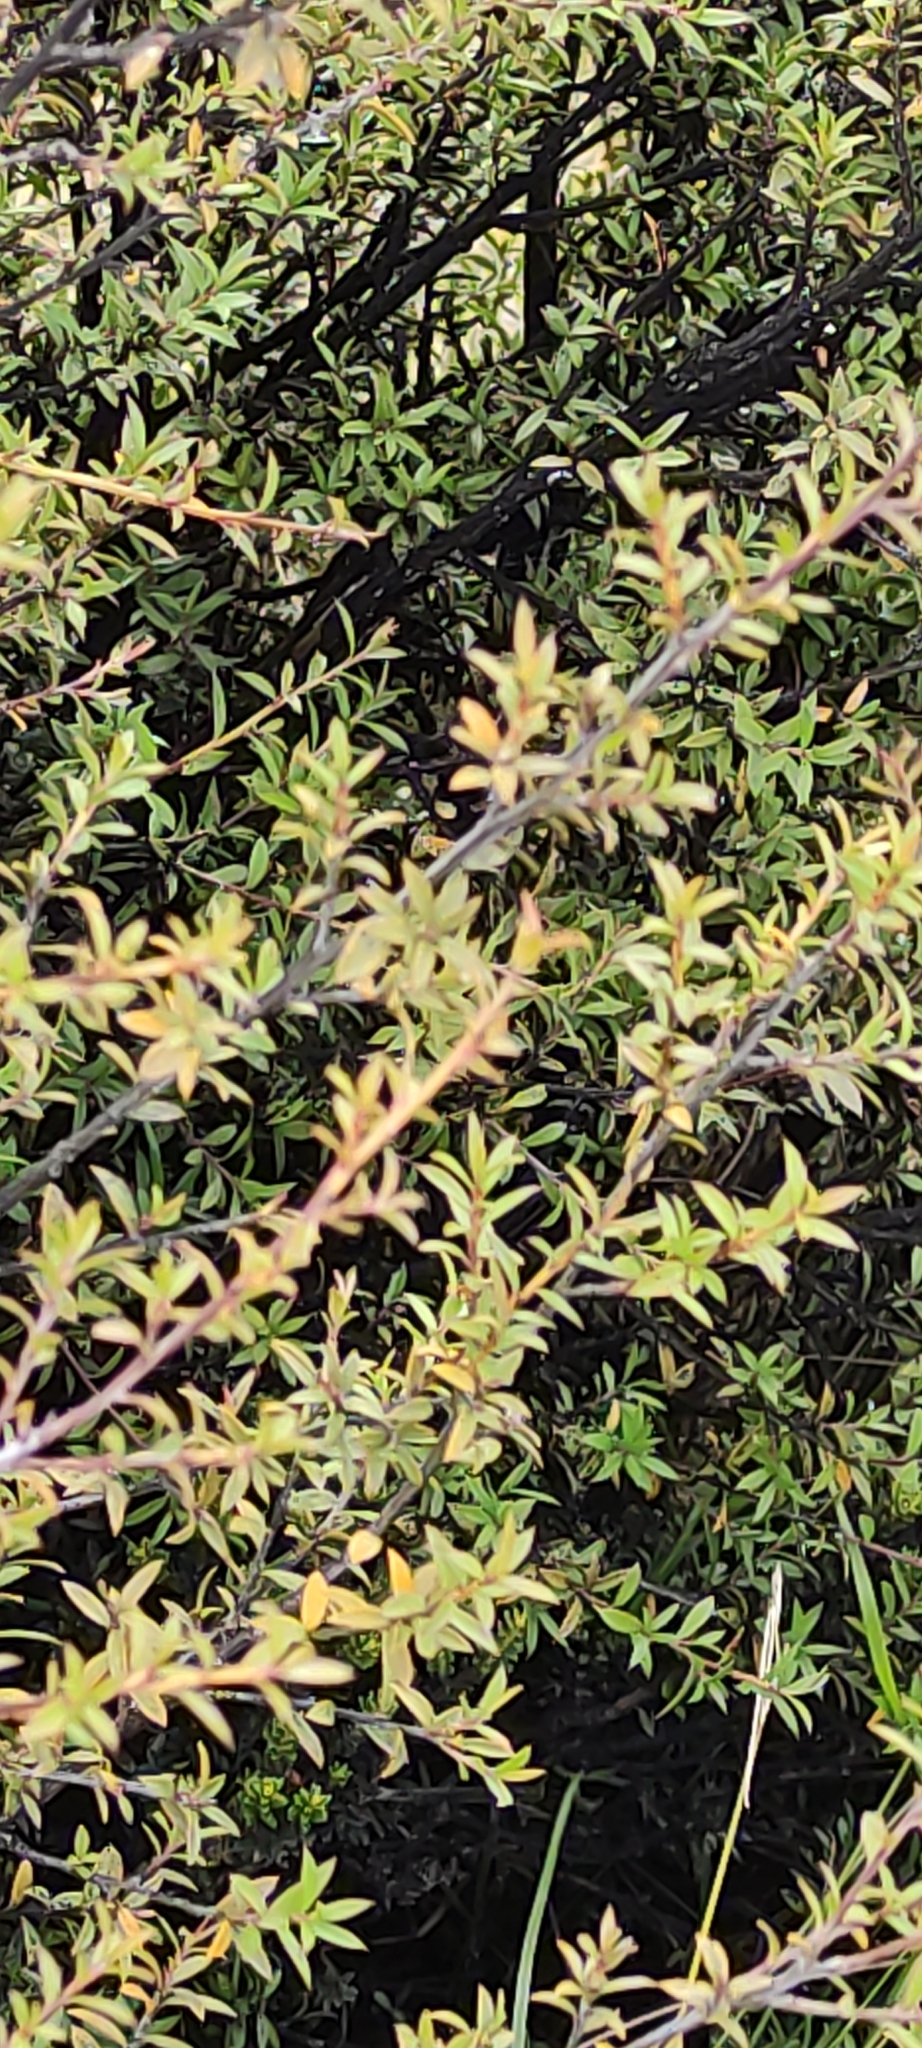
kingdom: Plantae
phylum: Tracheophyta
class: Magnoliopsida
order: Myrtales
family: Myrtaceae
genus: Leptospermum
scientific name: Leptospermum scoparium
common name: Broom tea-tree
